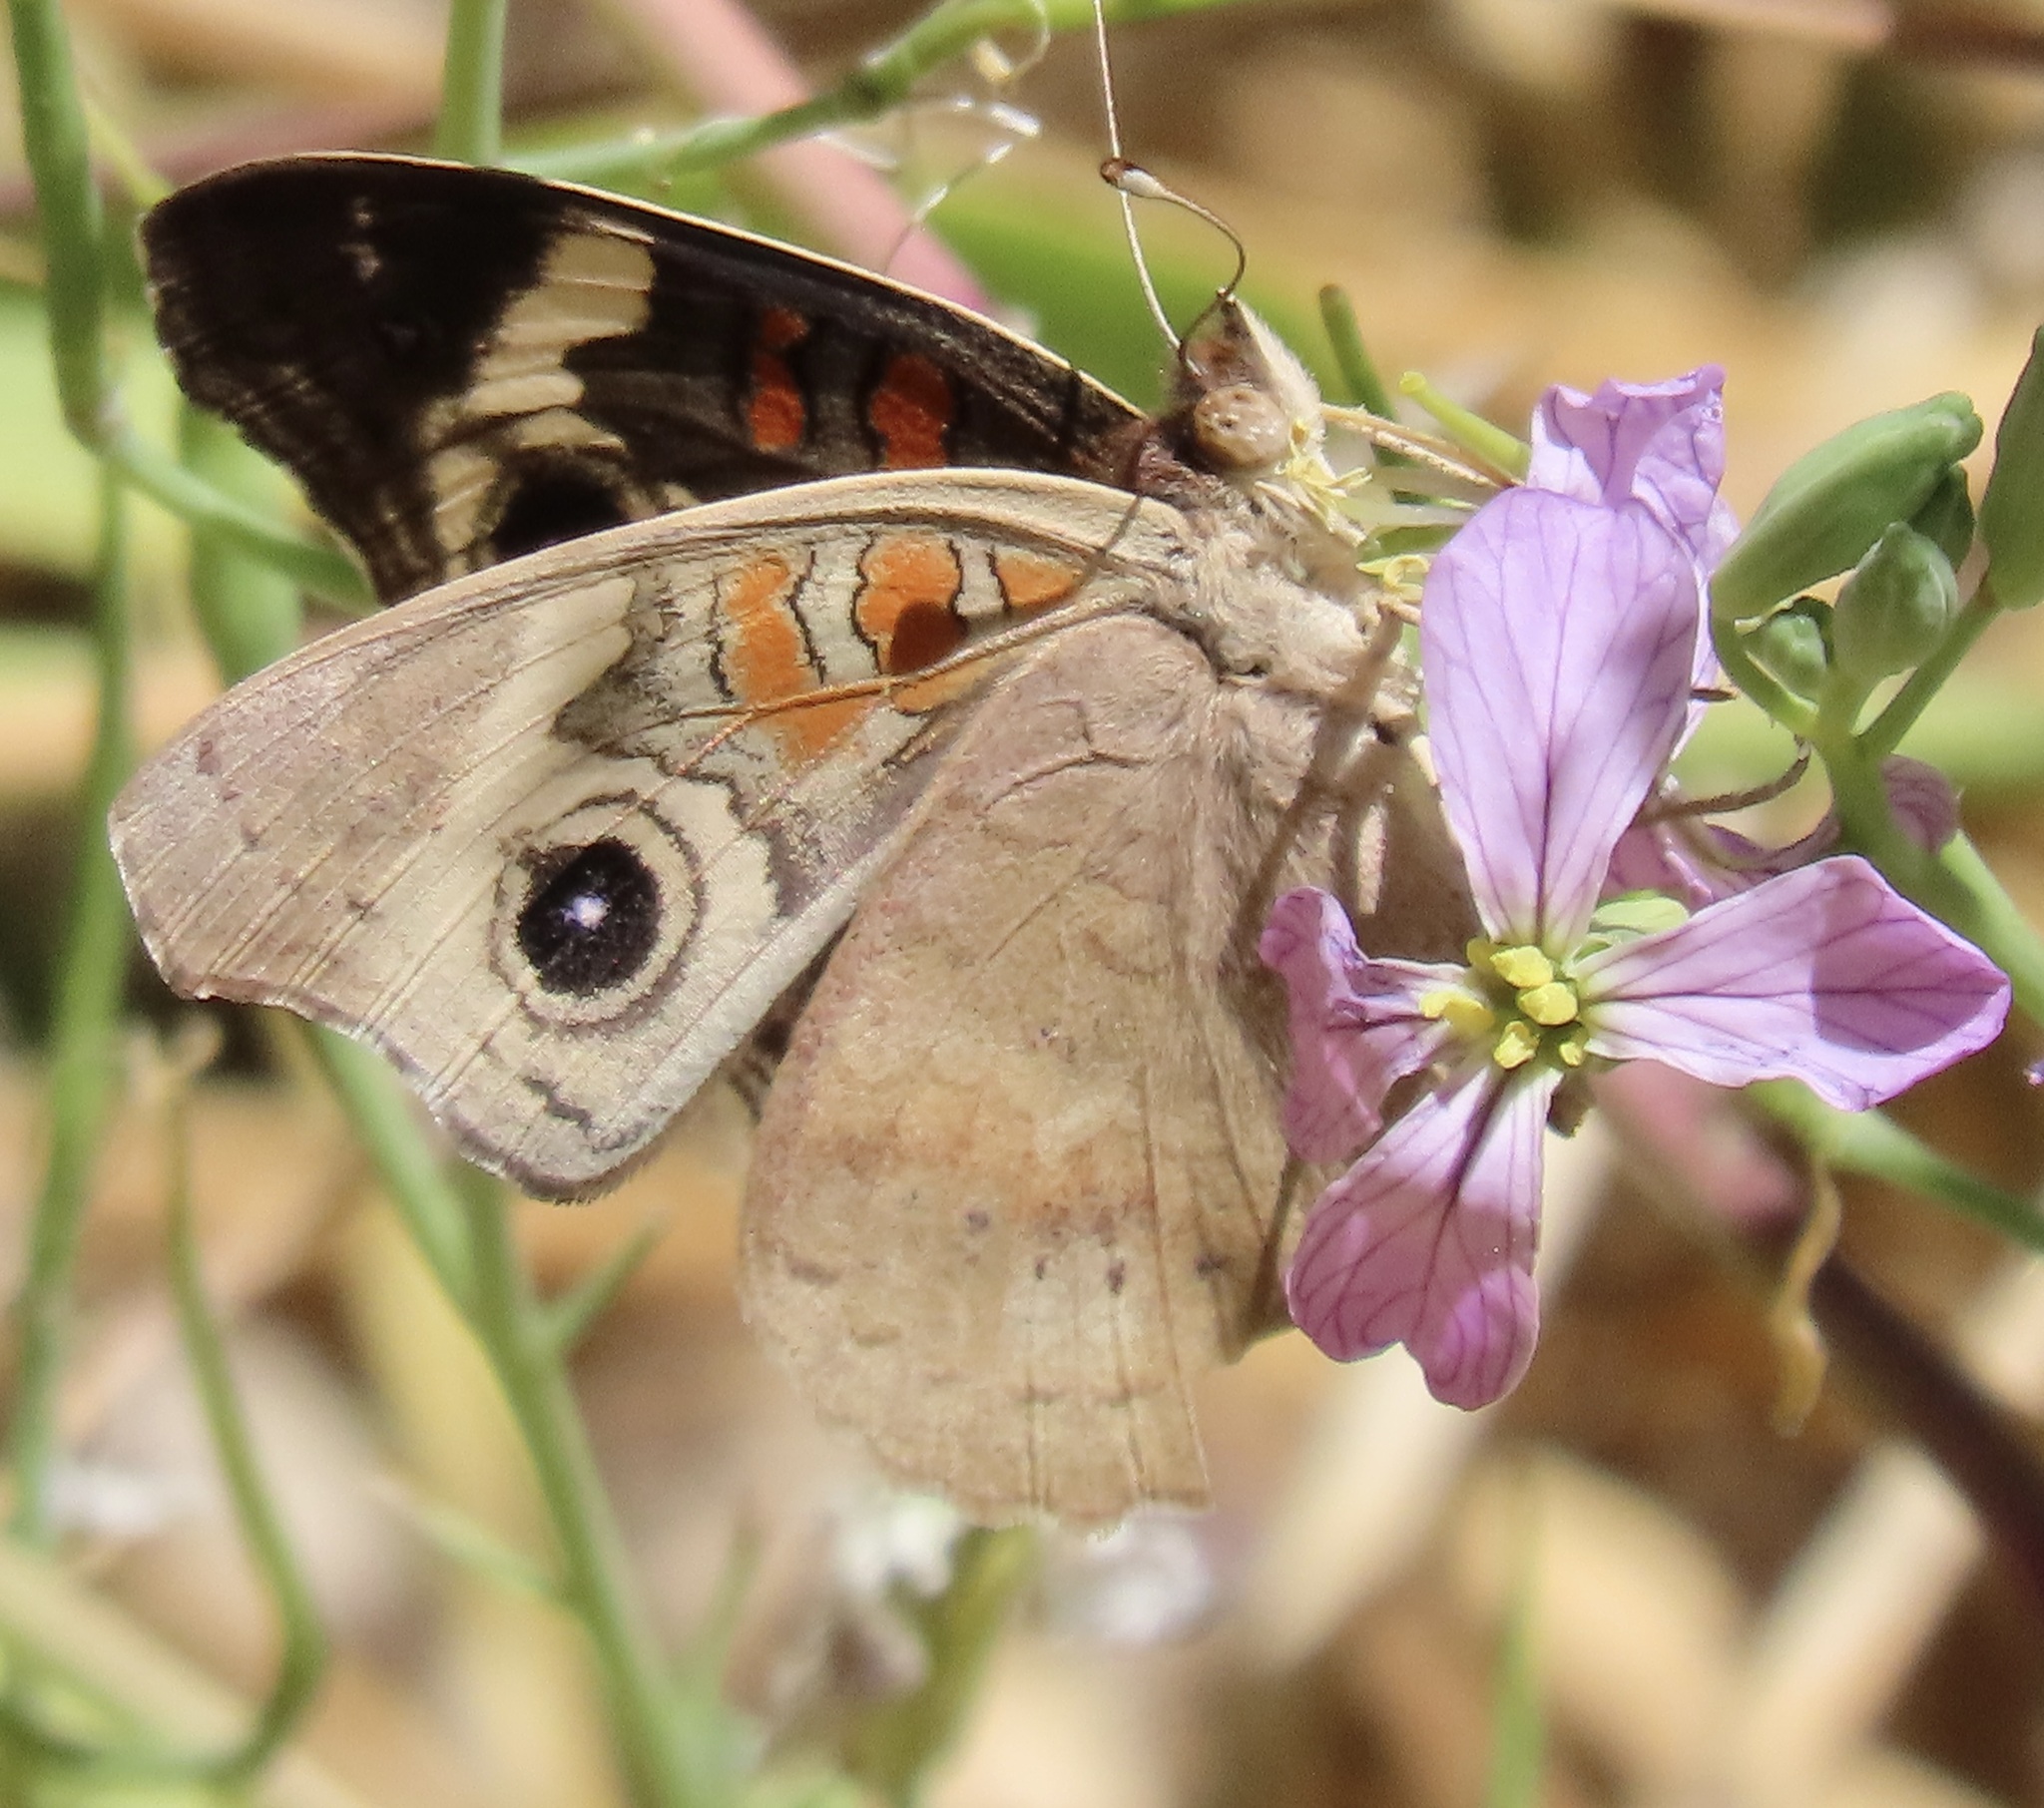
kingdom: Animalia
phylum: Arthropoda
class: Insecta
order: Lepidoptera
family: Nymphalidae
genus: Junonia
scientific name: Junonia grisea
